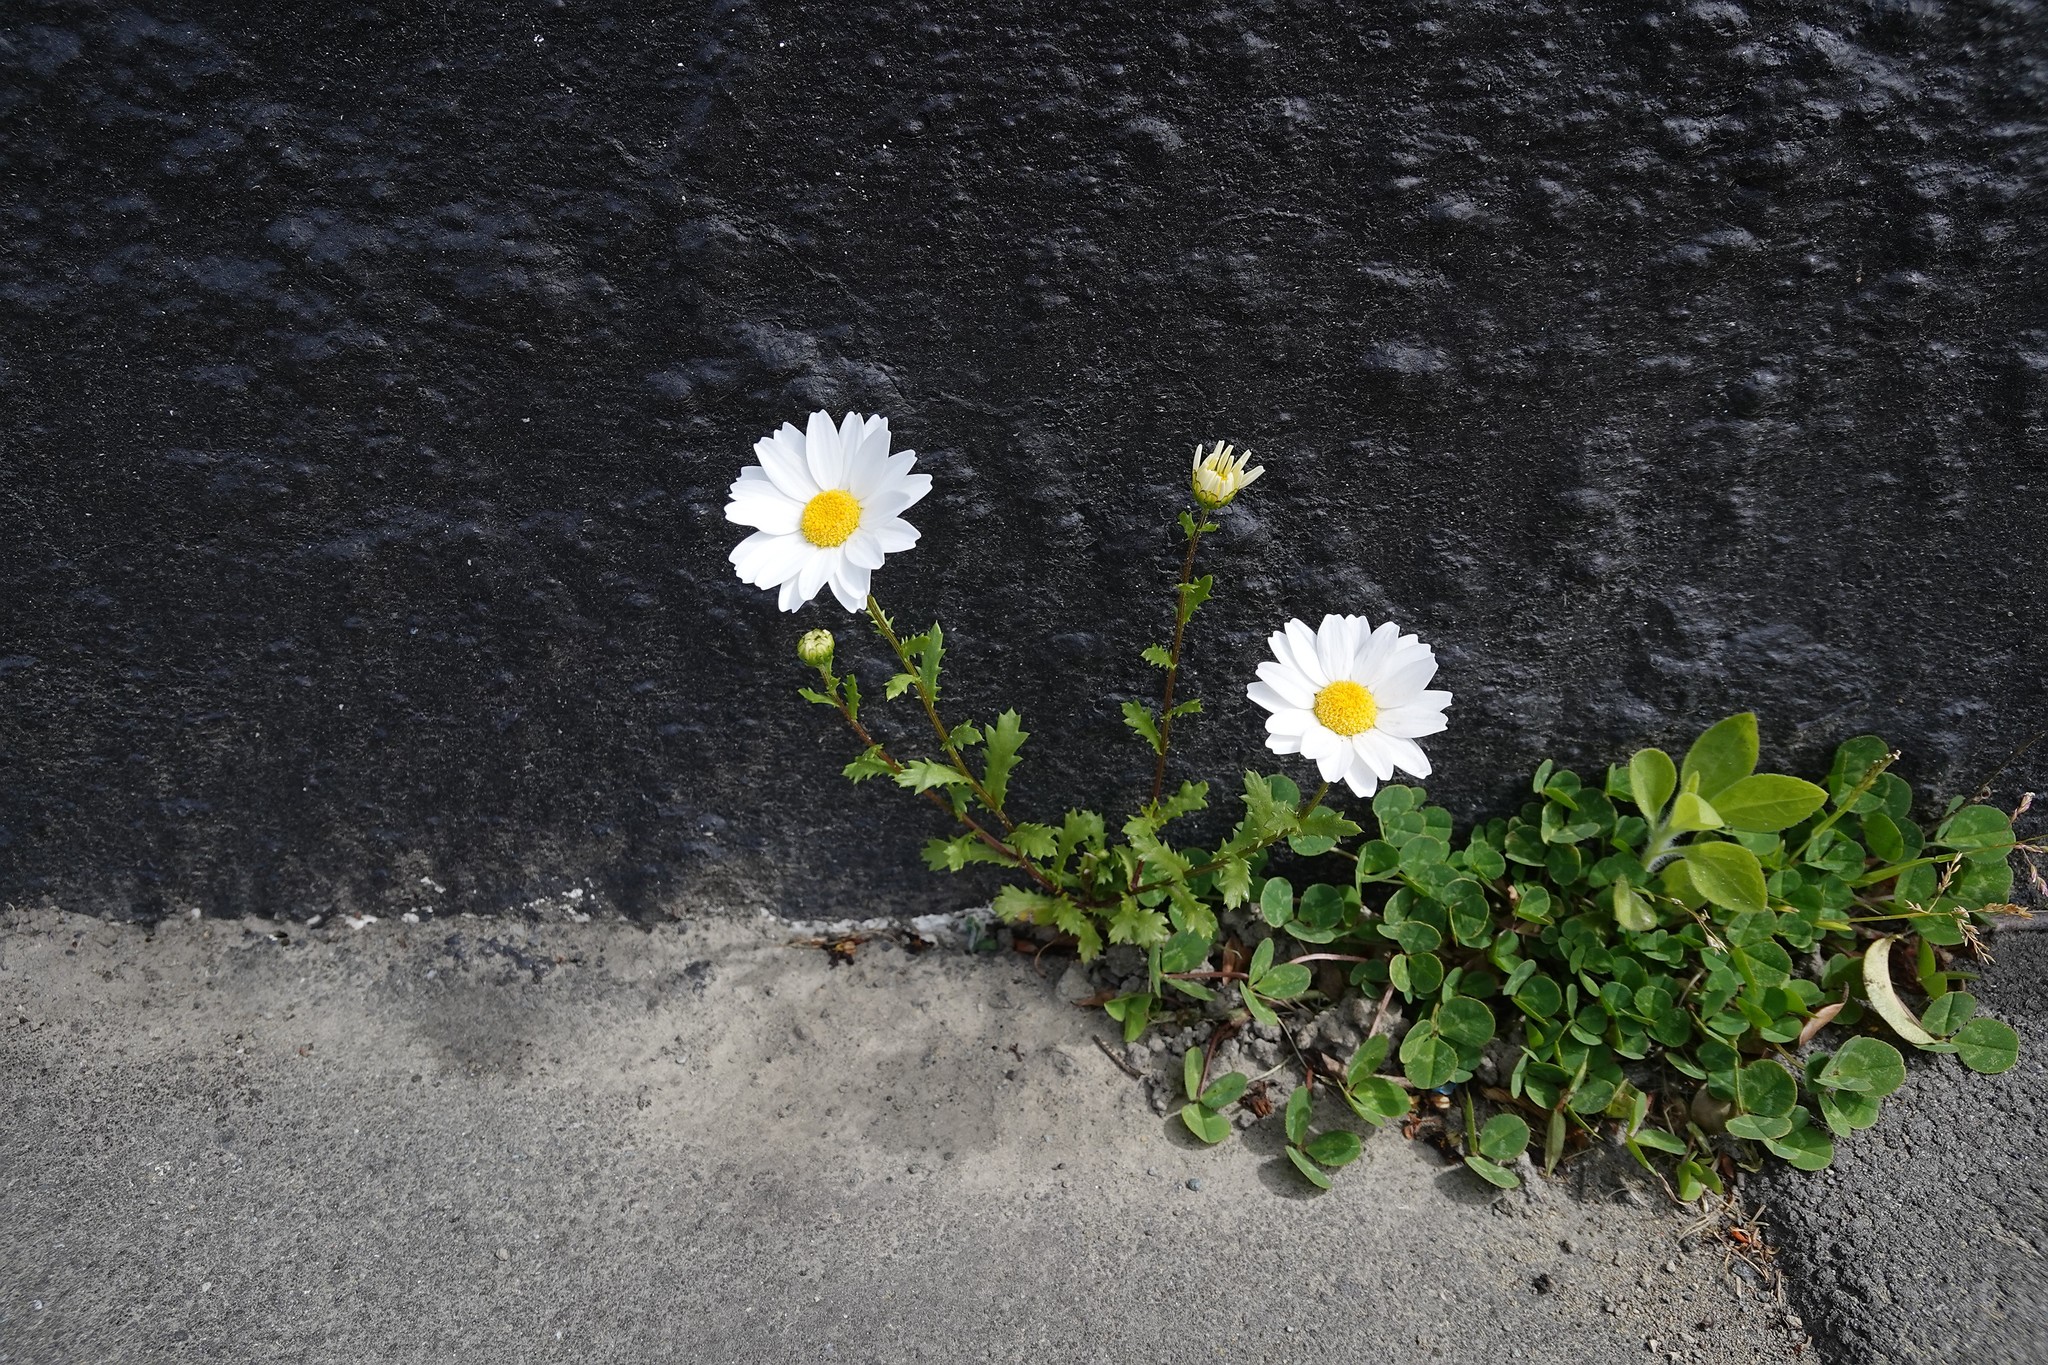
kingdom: Plantae
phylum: Tracheophyta
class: Magnoliopsida
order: Asterales
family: Asteraceae
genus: Mauranthemum
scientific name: Mauranthemum paludosum
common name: Sunflower
